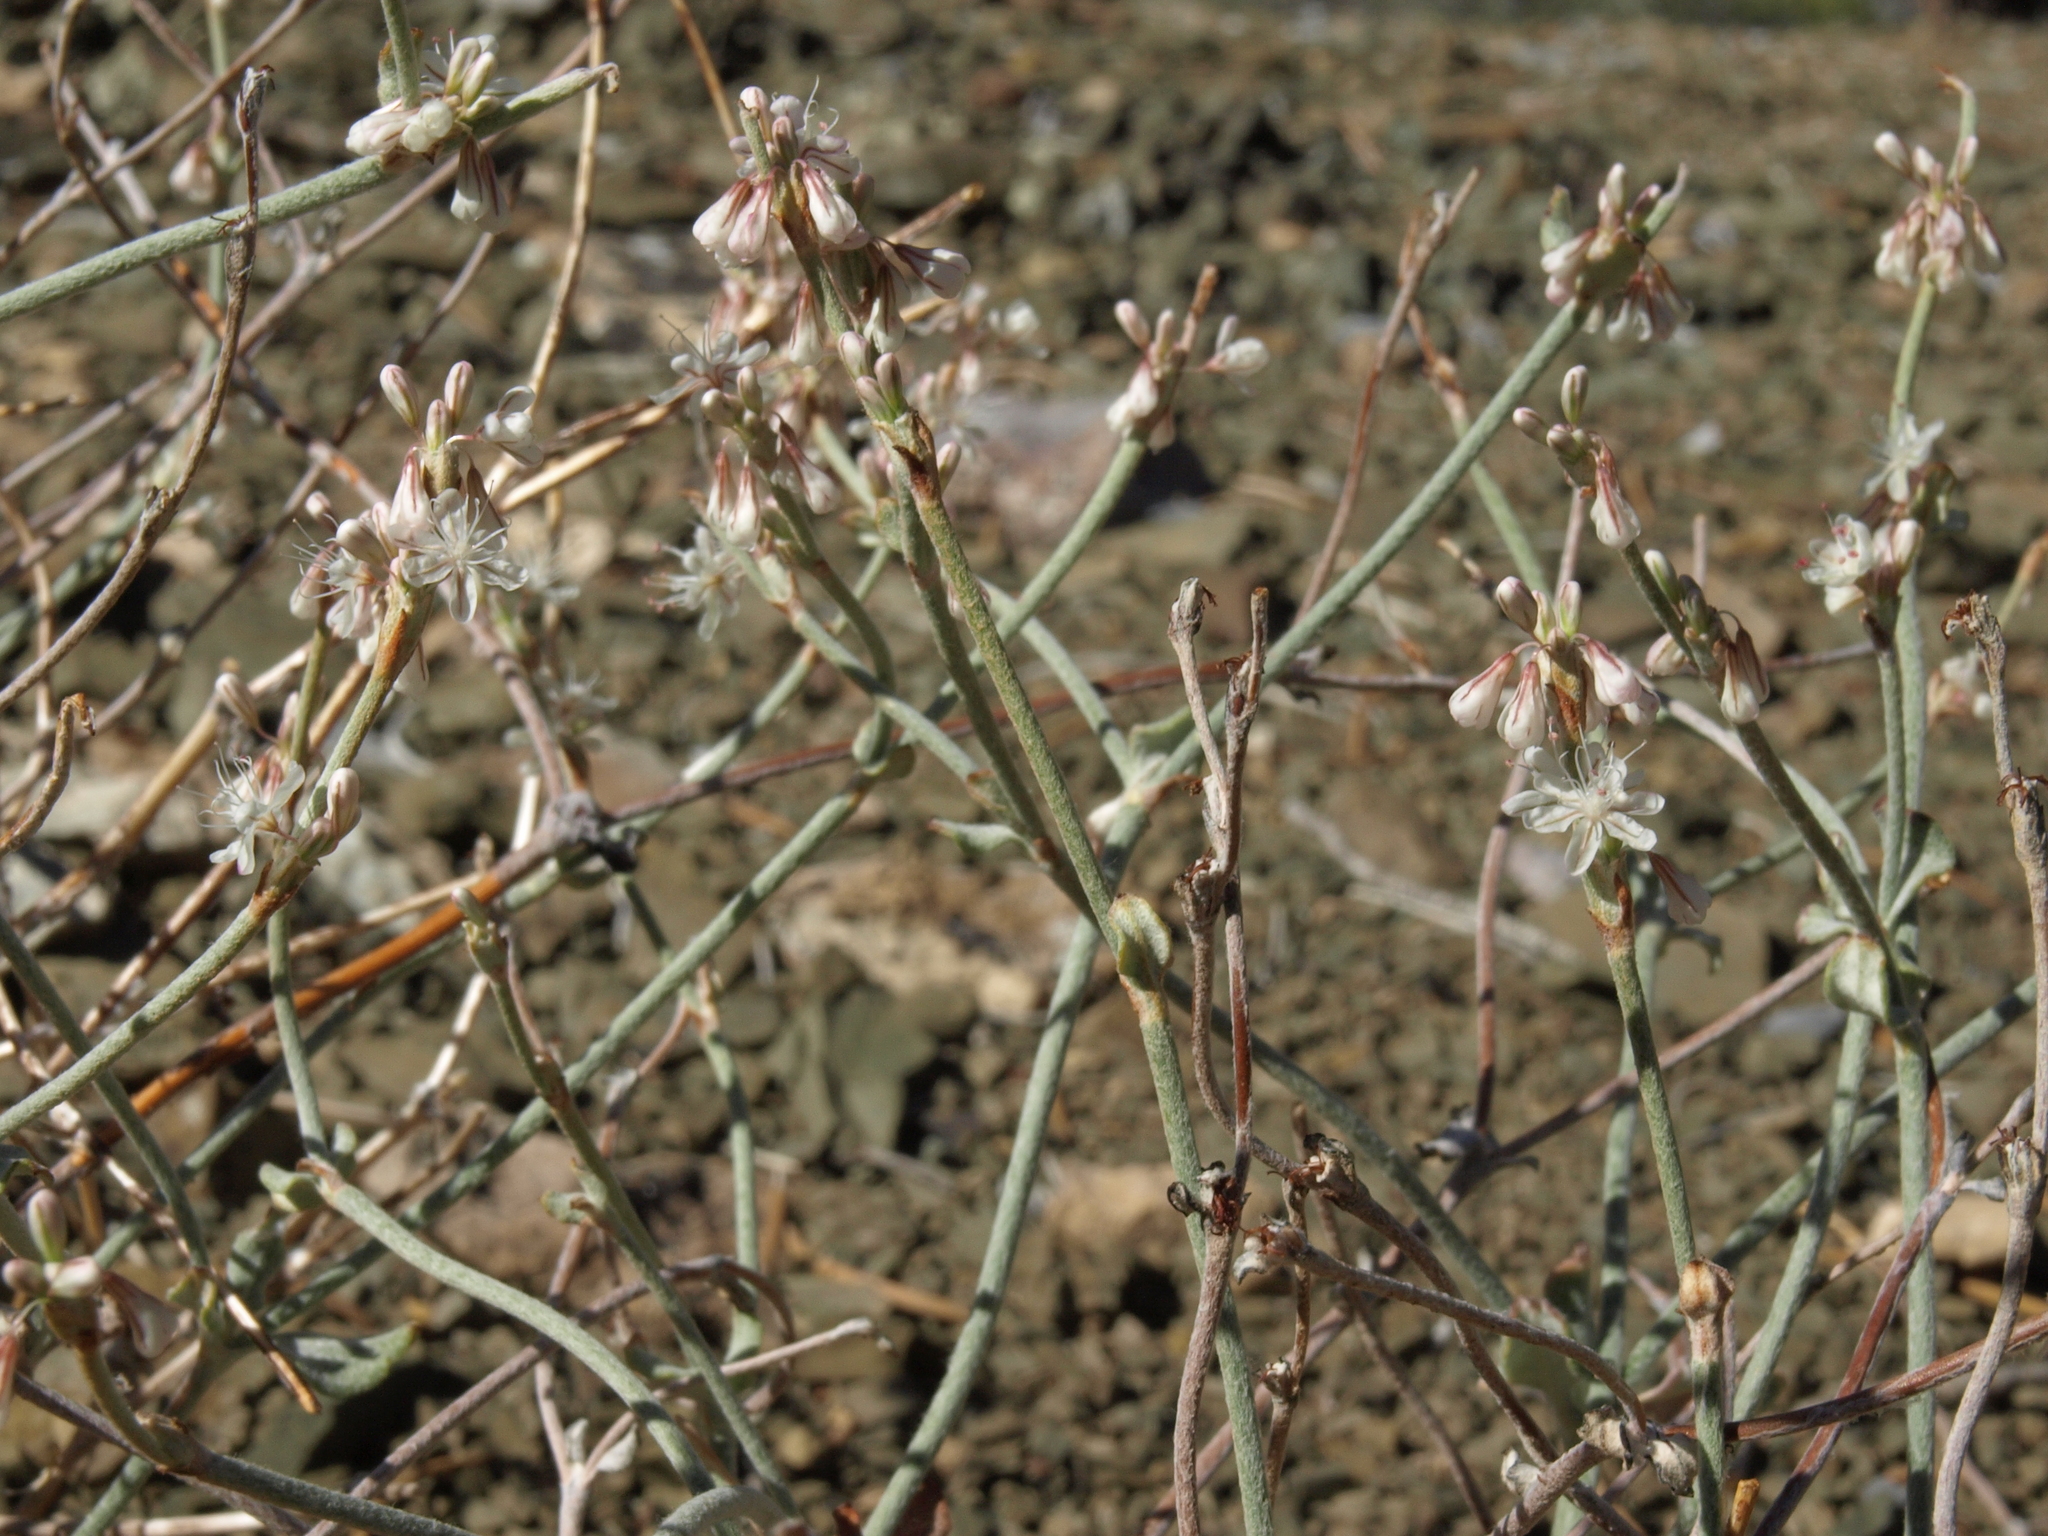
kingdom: Plantae
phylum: Tracheophyta
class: Magnoliopsida
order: Caryophyllales
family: Polygonaceae
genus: Eriogonum
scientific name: Eriogonum panamintense
